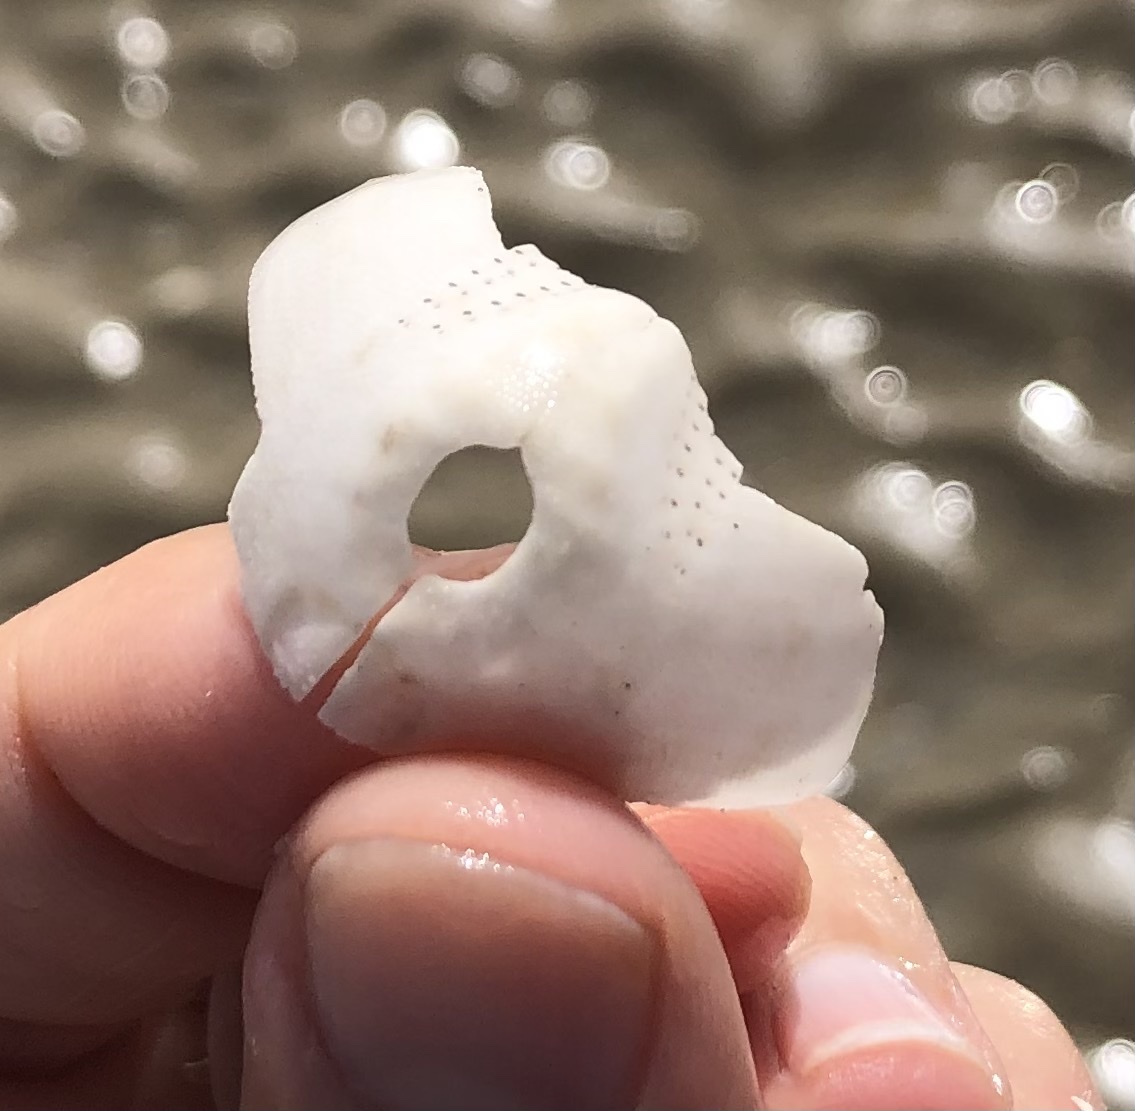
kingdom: Animalia
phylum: Echinodermata
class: Echinoidea
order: Spatangoida
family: Loveniidae
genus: Echinocardium
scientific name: Echinocardium cordatum
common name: Heart-urchin
